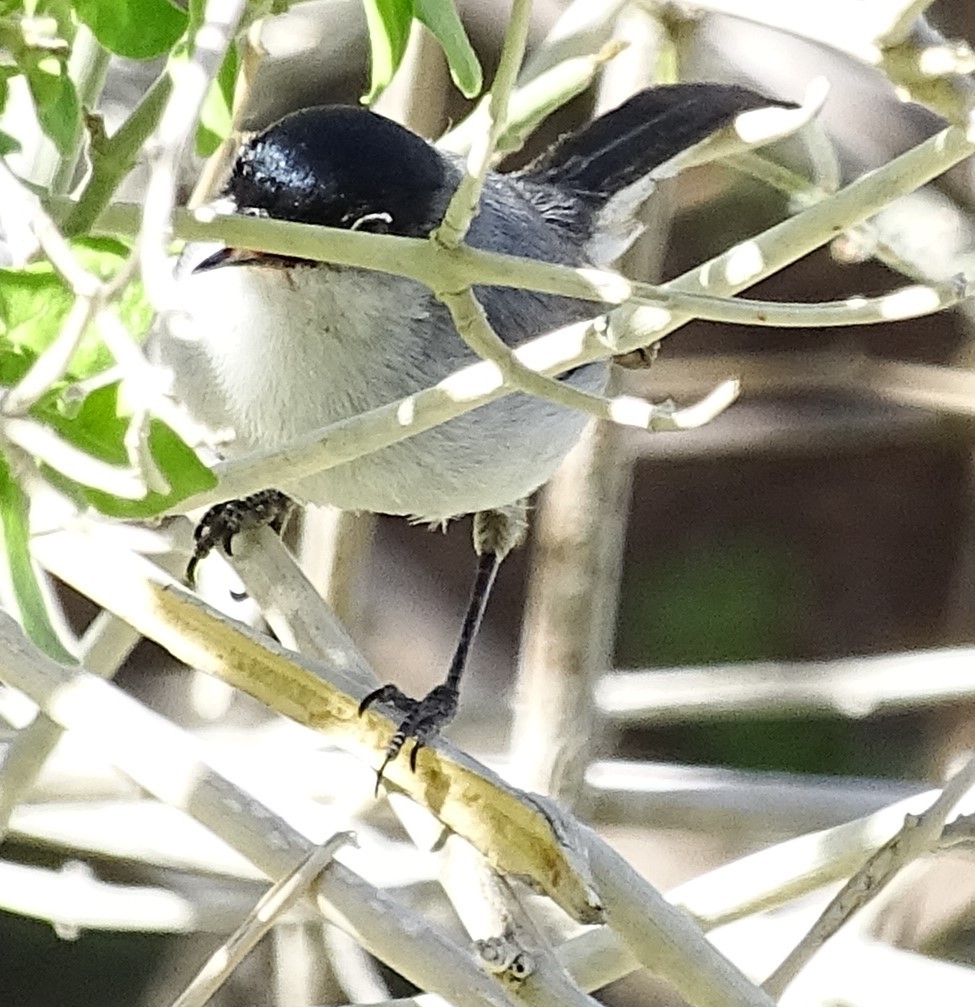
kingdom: Animalia
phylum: Chordata
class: Aves
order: Passeriformes
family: Polioptilidae
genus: Polioptila
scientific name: Polioptila melanura
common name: Black-tailed gnatcatcher
